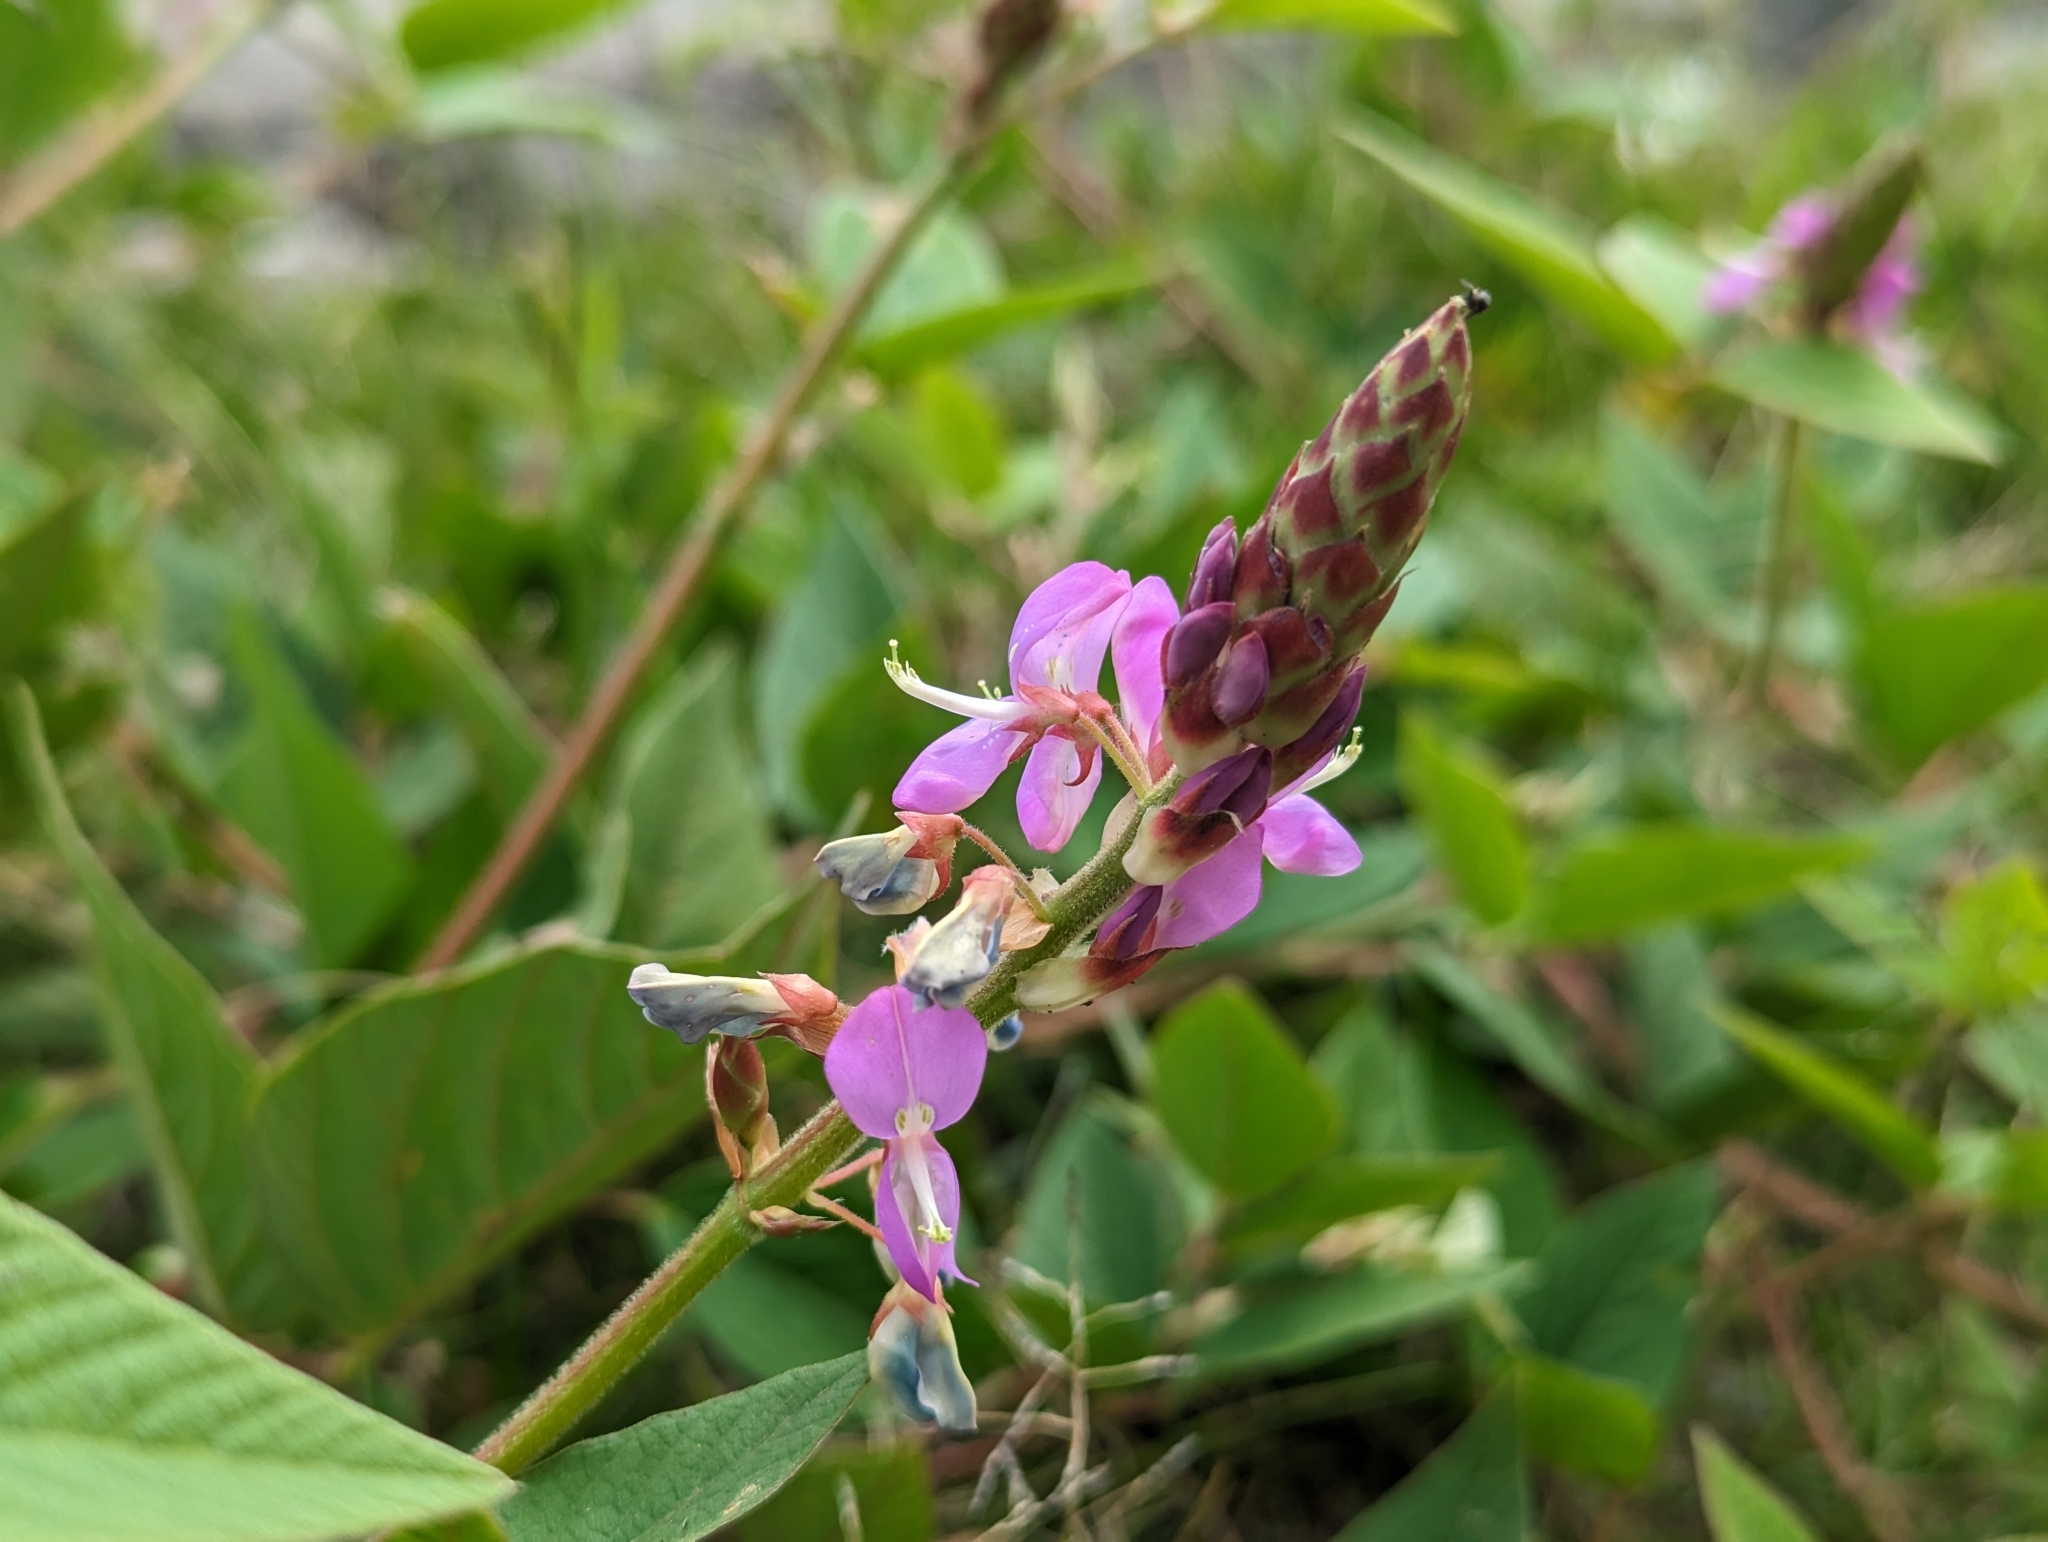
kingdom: Plantae
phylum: Tracheophyta
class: Magnoliopsida
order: Fabales
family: Fabaceae
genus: Desmodium
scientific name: Desmodium incanum
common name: Tickclover
